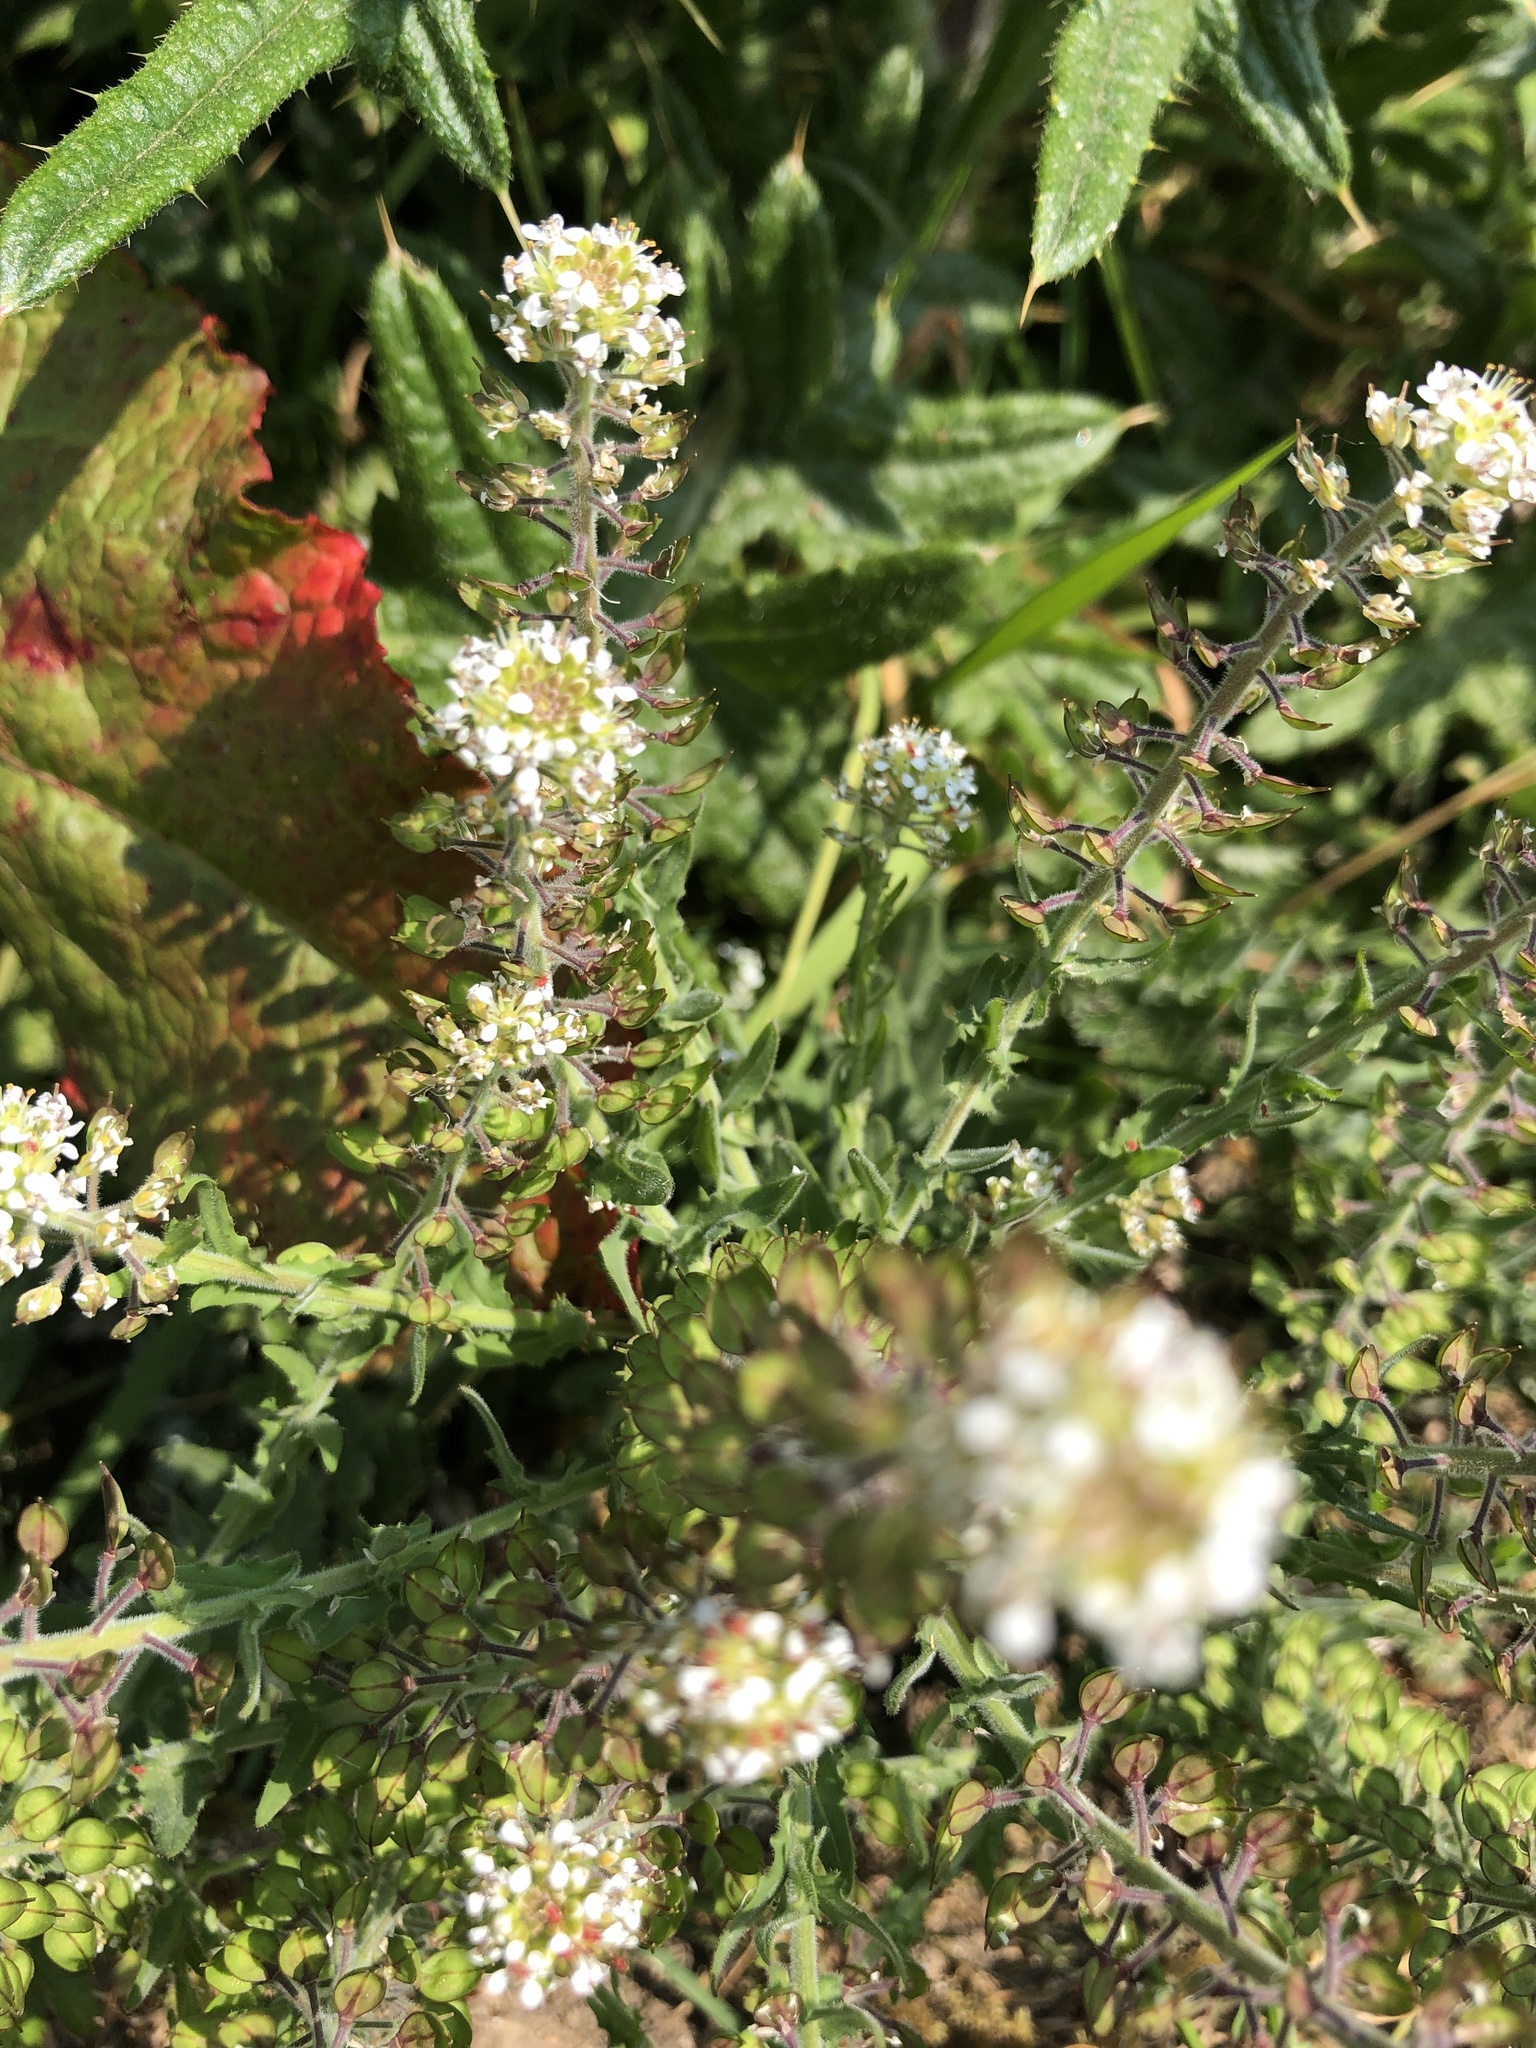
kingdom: Plantae
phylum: Tracheophyta
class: Magnoliopsida
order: Brassicales
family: Brassicaceae
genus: Lepidium
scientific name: Lepidium heterophyllum
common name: Smith's pepperwort
